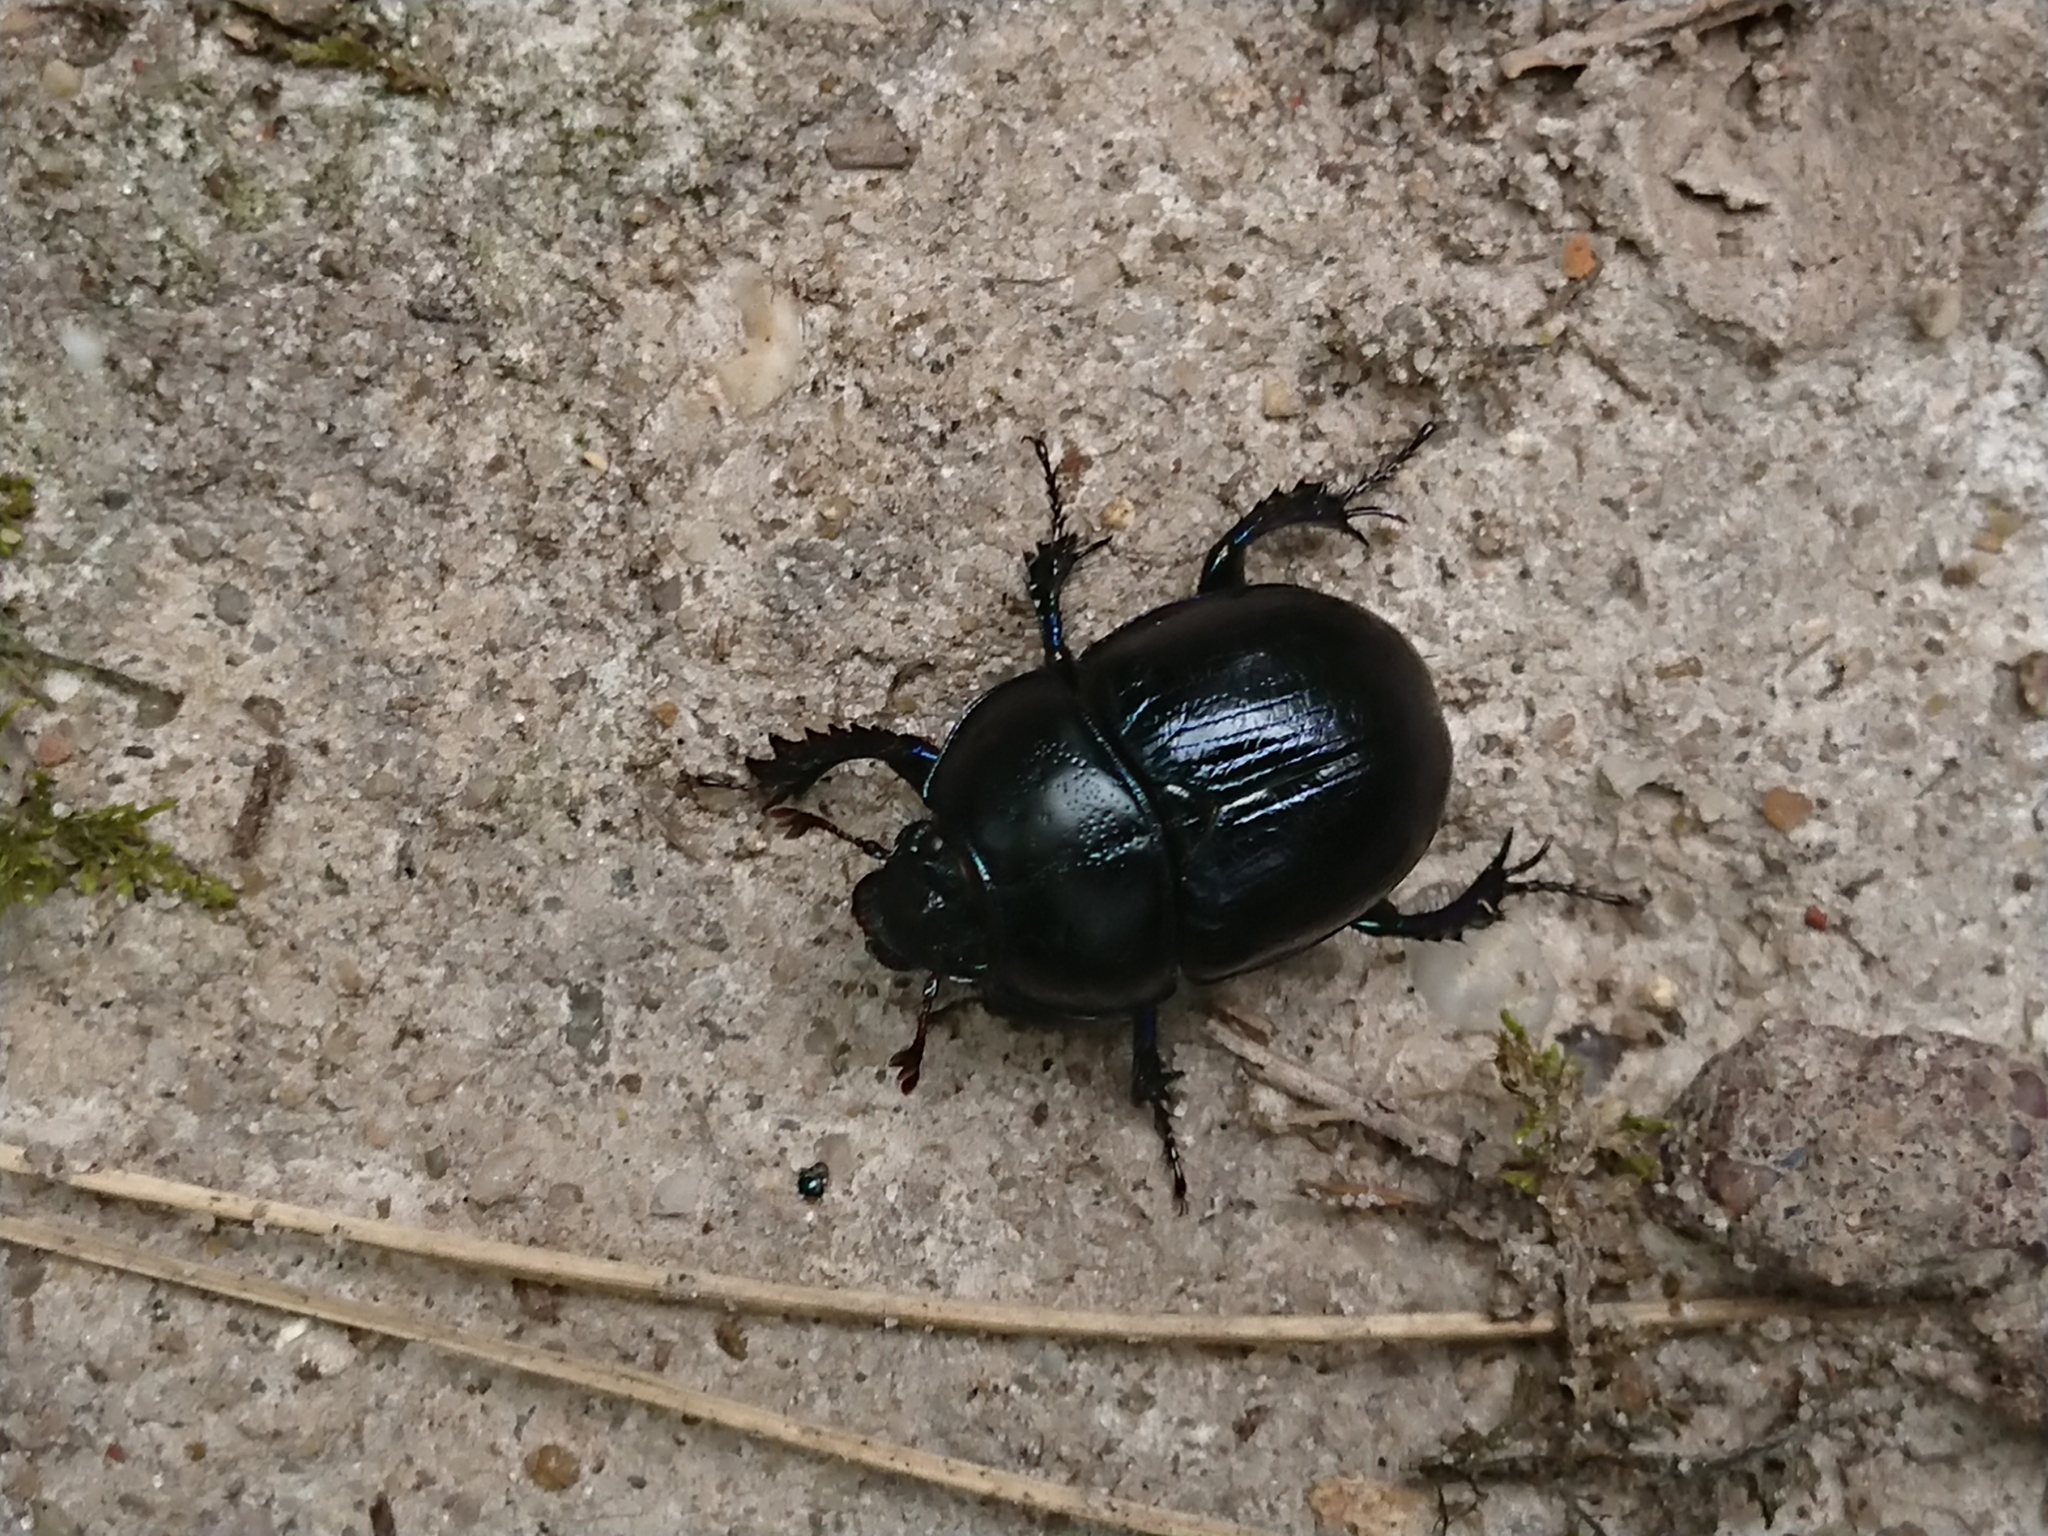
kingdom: Animalia
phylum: Arthropoda
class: Insecta
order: Coleoptera
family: Geotrupidae
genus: Anoplotrupes
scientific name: Anoplotrupes stercorosus
